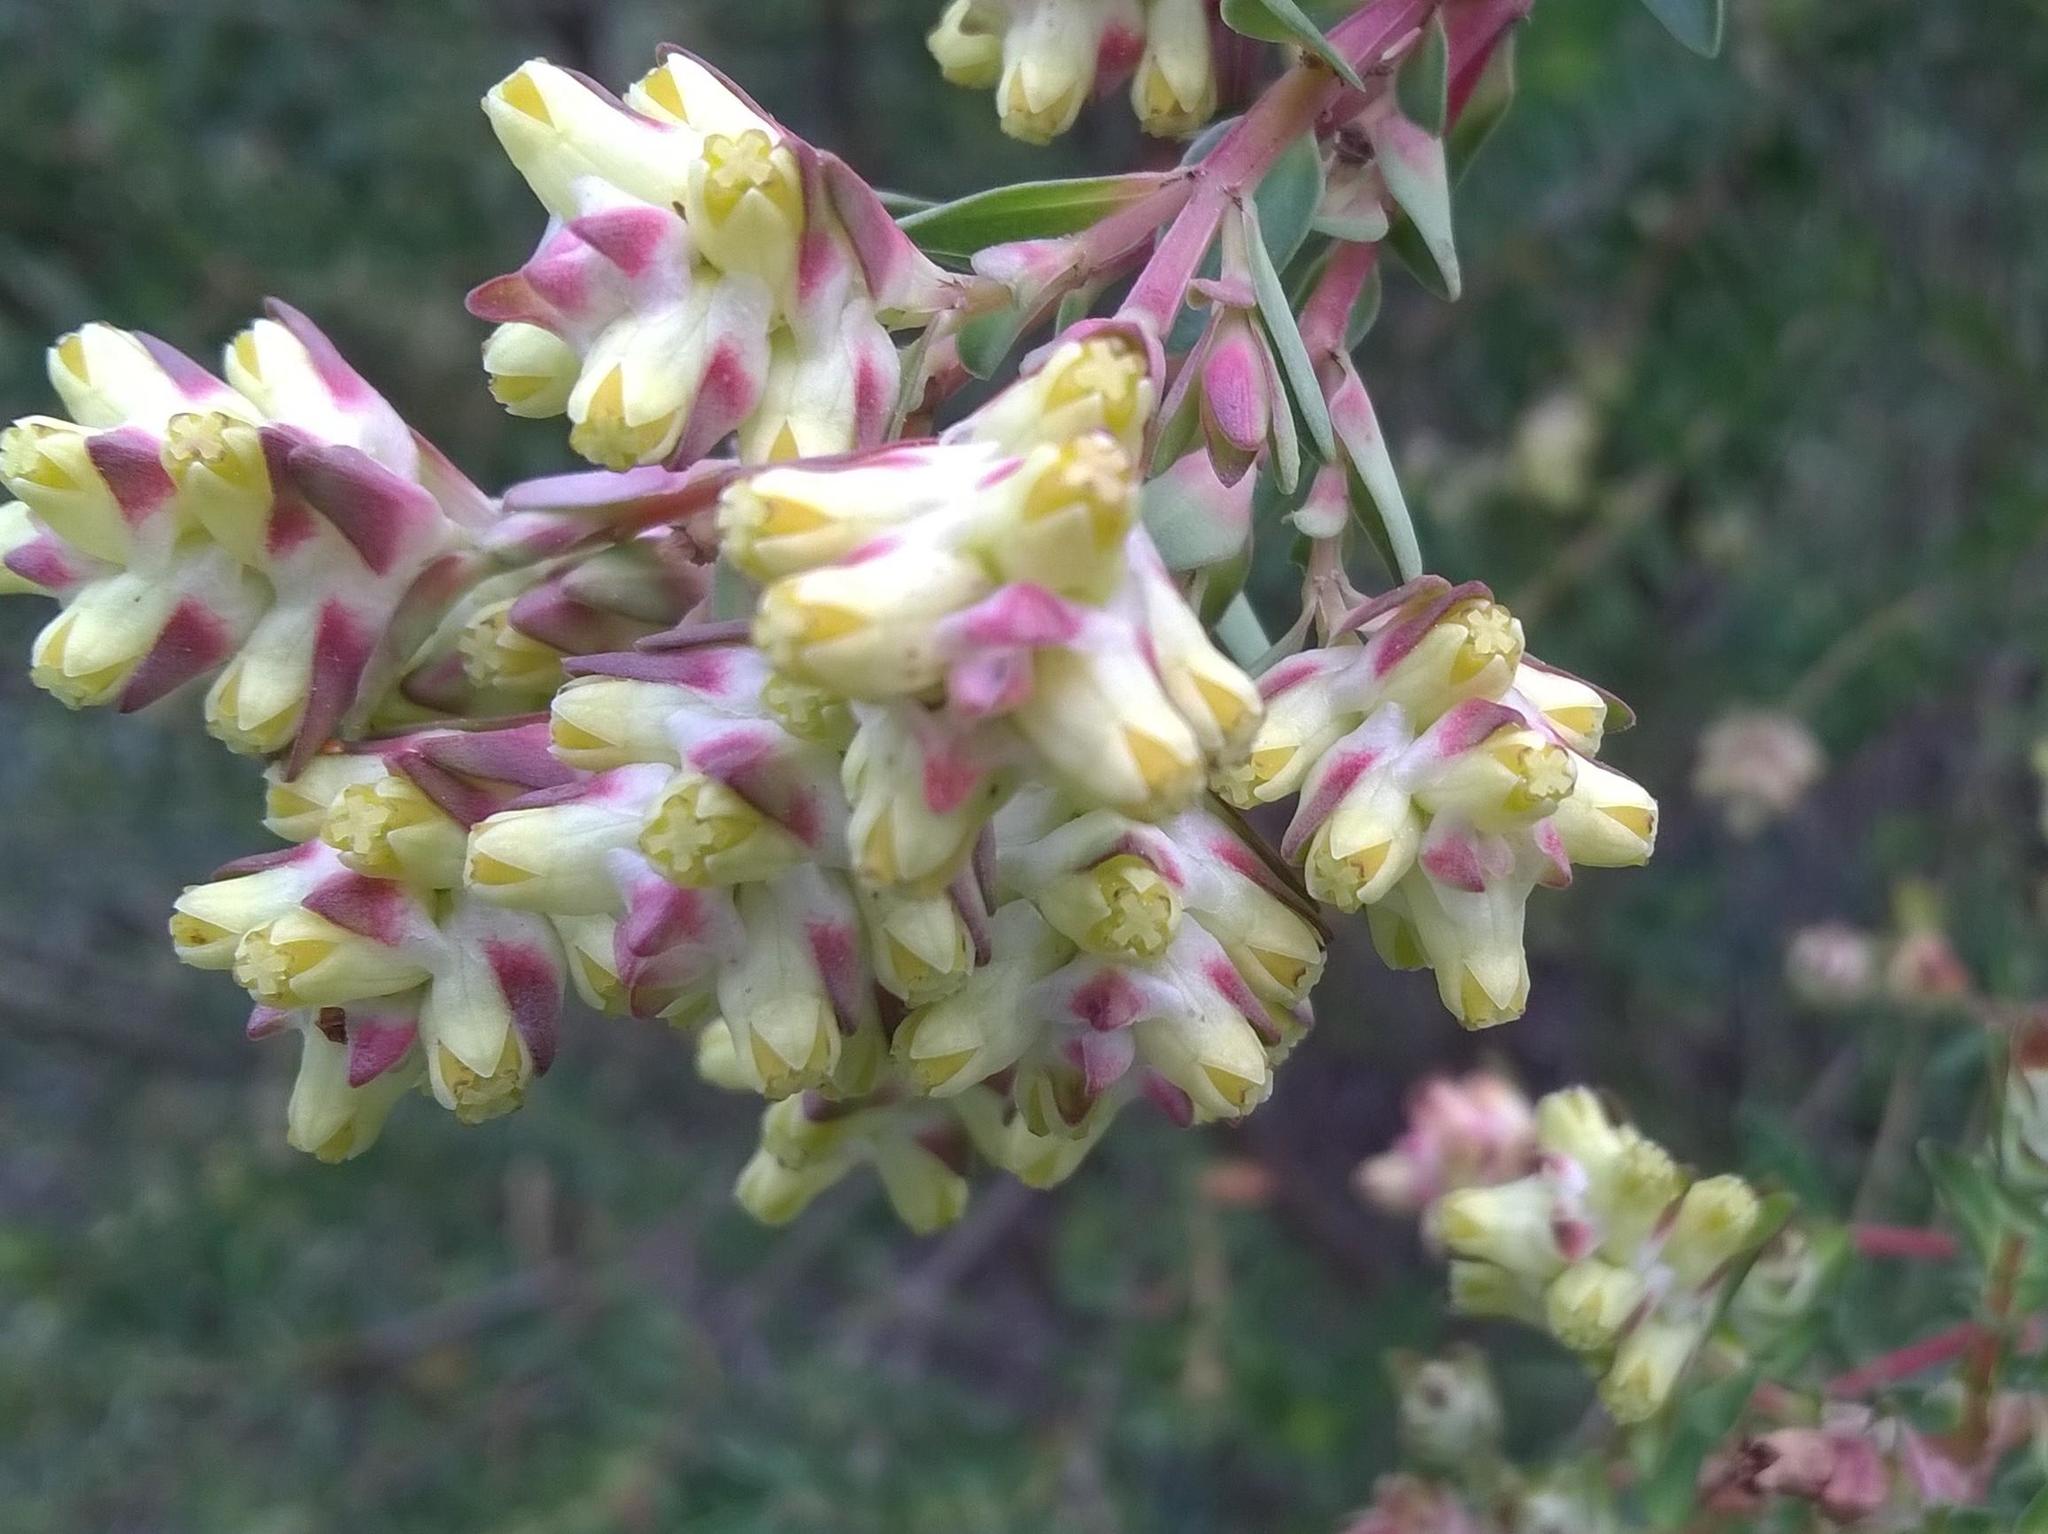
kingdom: Plantae
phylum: Tracheophyta
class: Magnoliopsida
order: Myrtales
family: Penaeaceae
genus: Penaea
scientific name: Penaea cneorum
